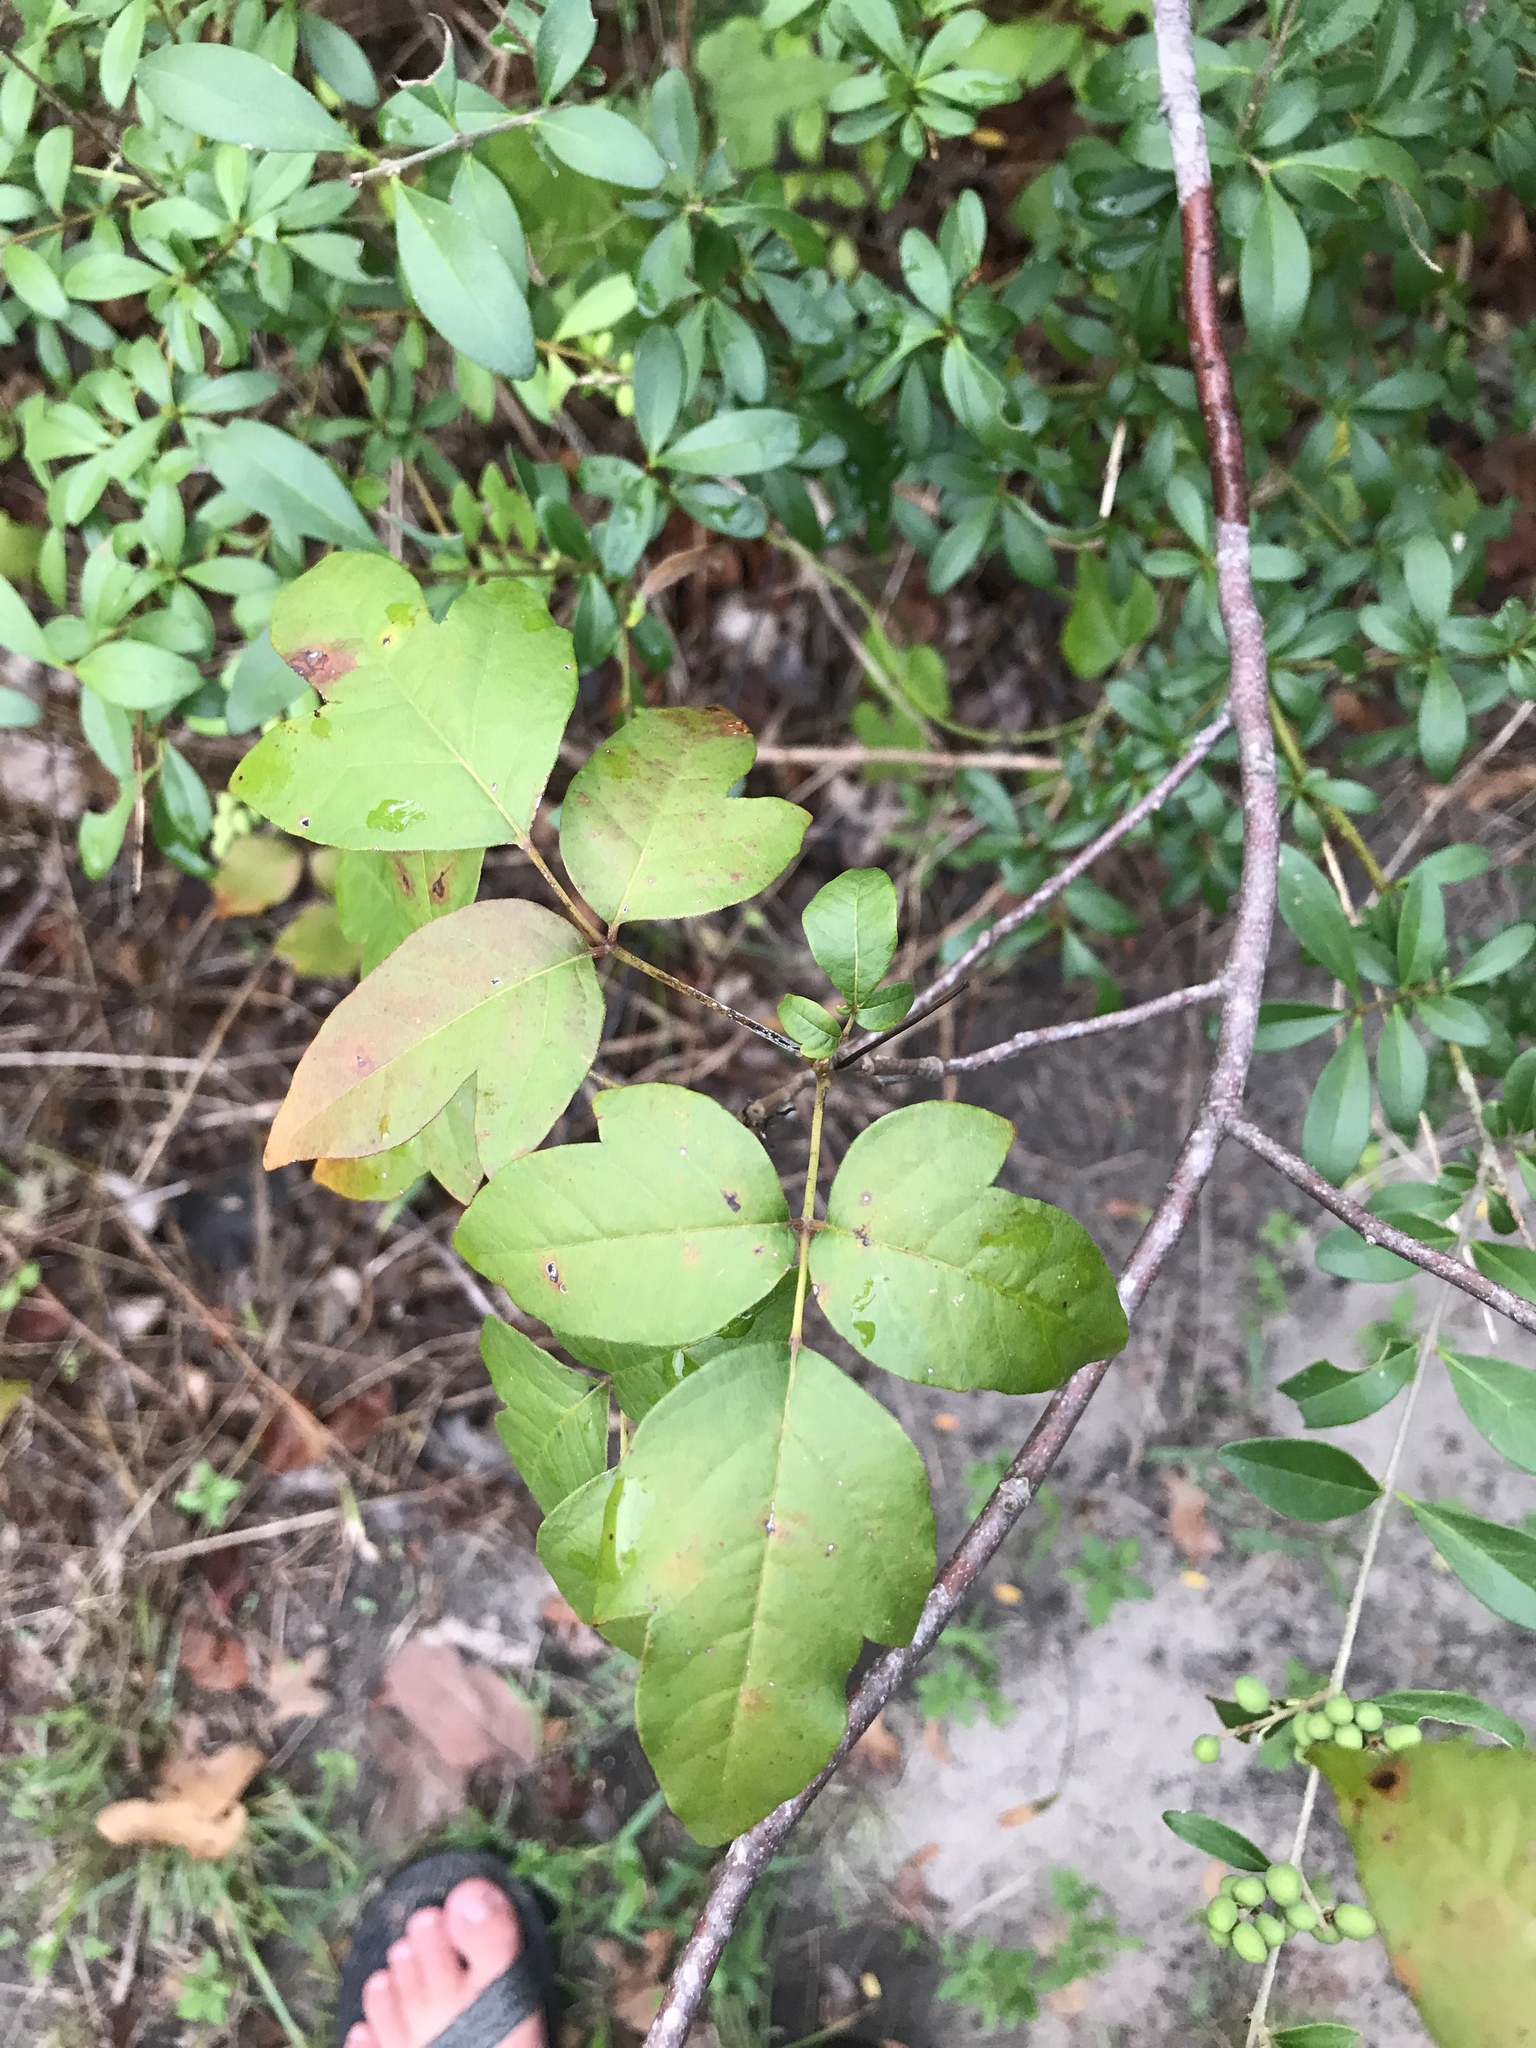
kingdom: Plantae
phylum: Tracheophyta
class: Magnoliopsida
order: Sapindales
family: Anacardiaceae
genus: Toxicodendron
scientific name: Toxicodendron radicans
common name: Poison ivy
